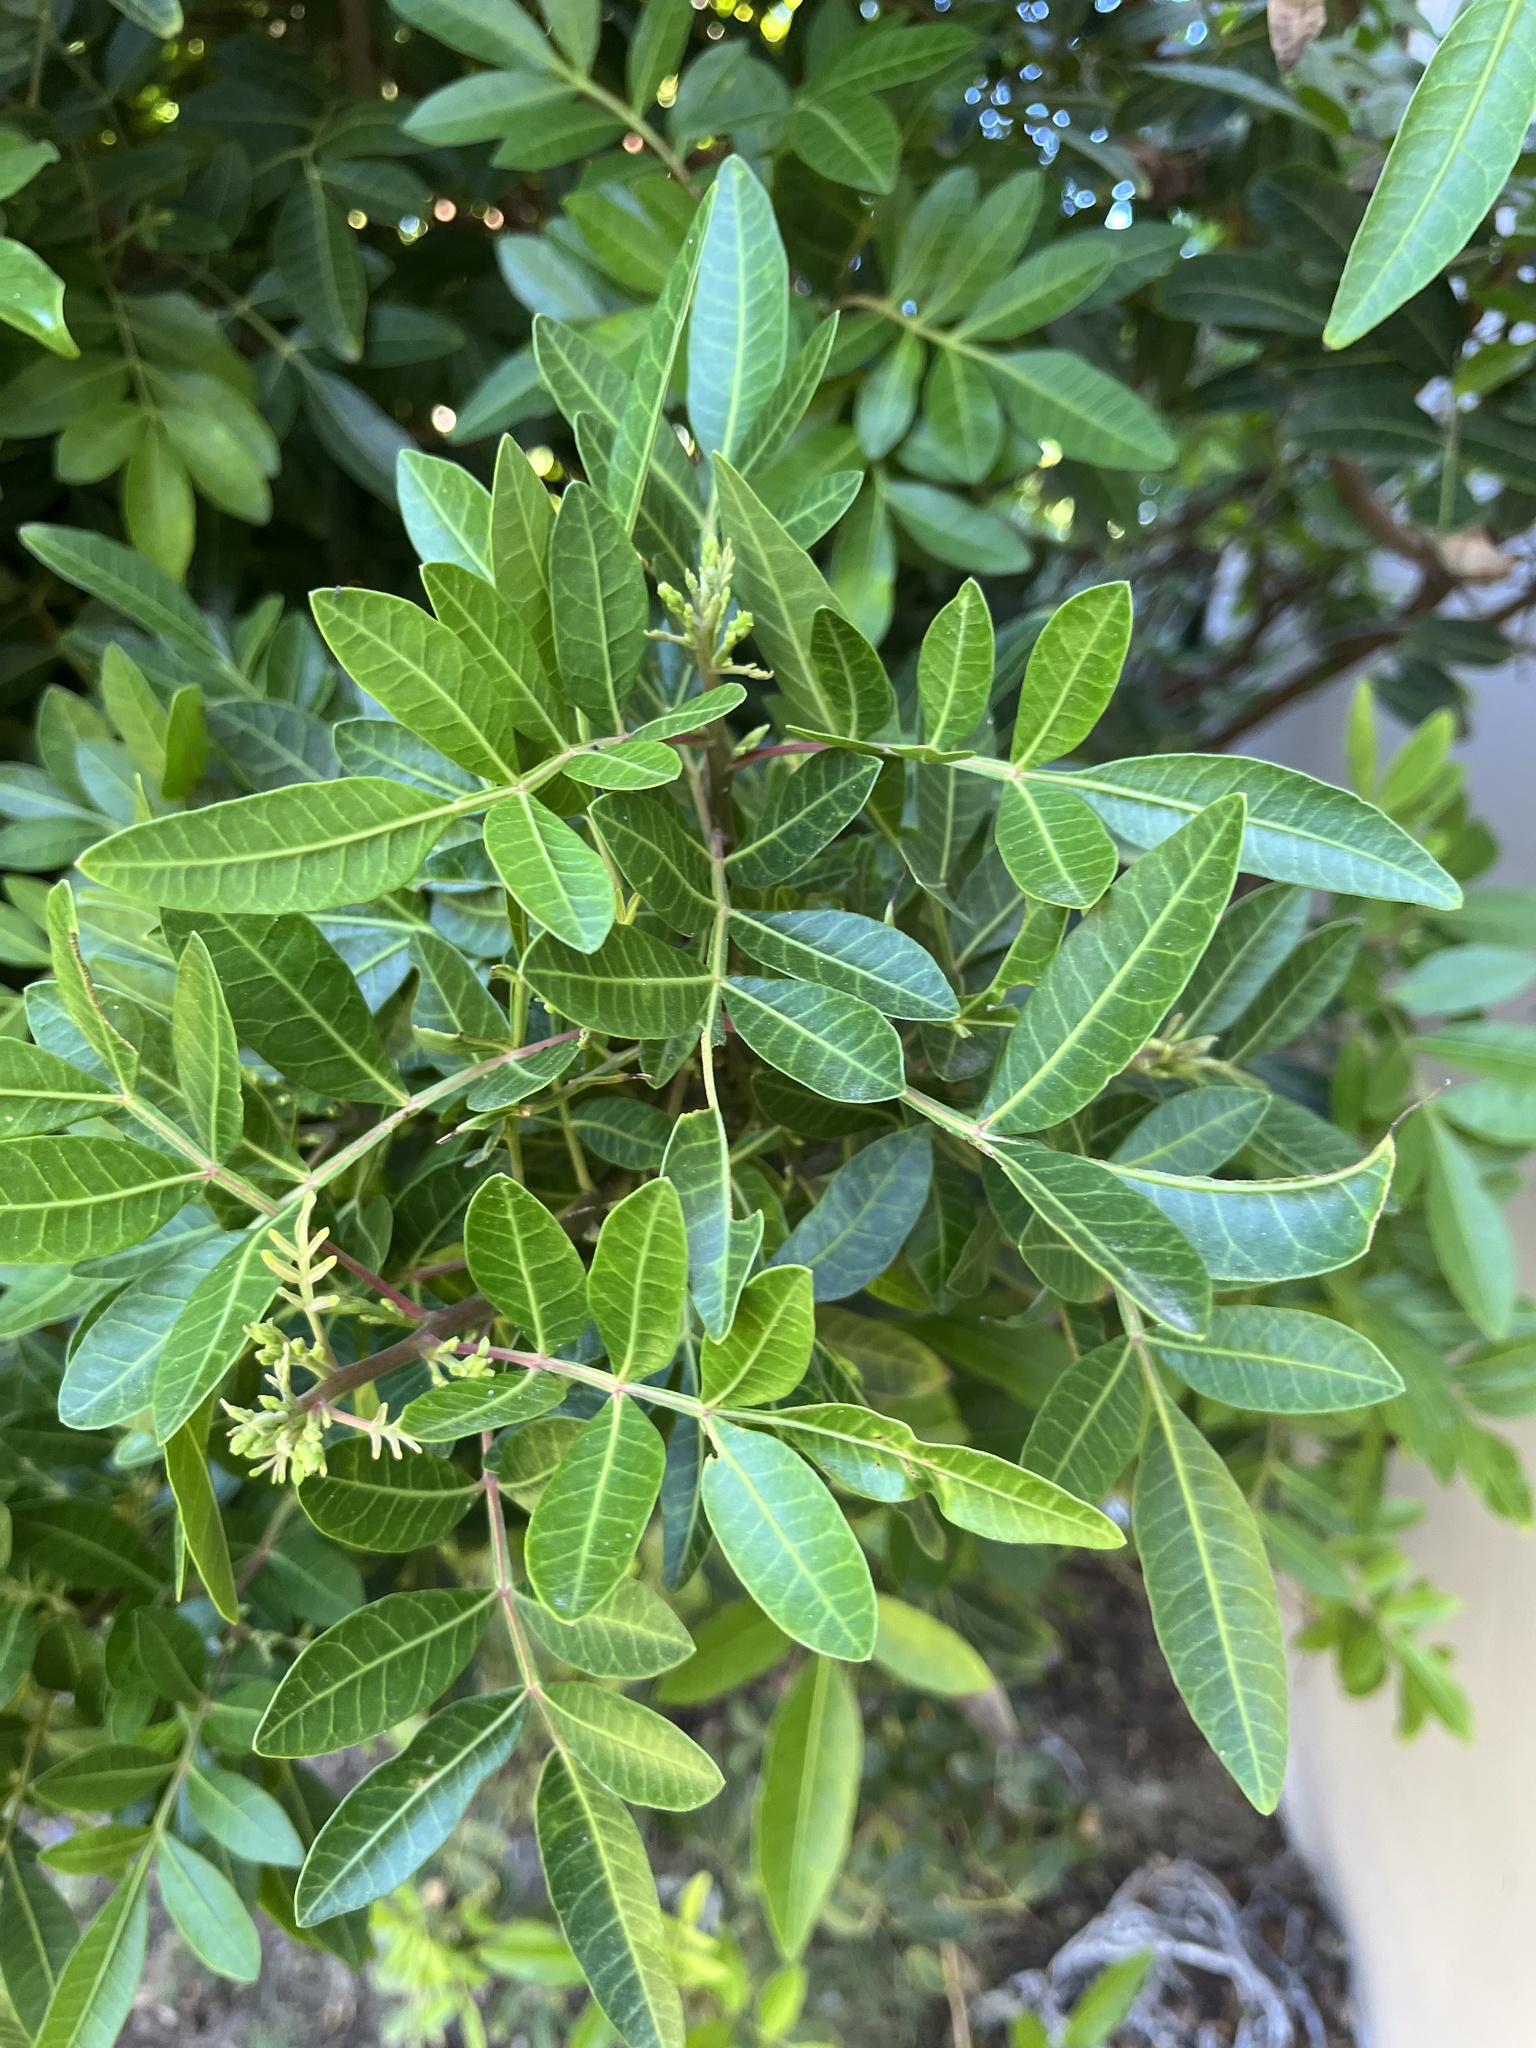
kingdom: Plantae
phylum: Tracheophyta
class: Magnoliopsida
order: Sapindales
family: Anacardiaceae
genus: Schinus
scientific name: Schinus terebinthifolia
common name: Brazilian peppertree
